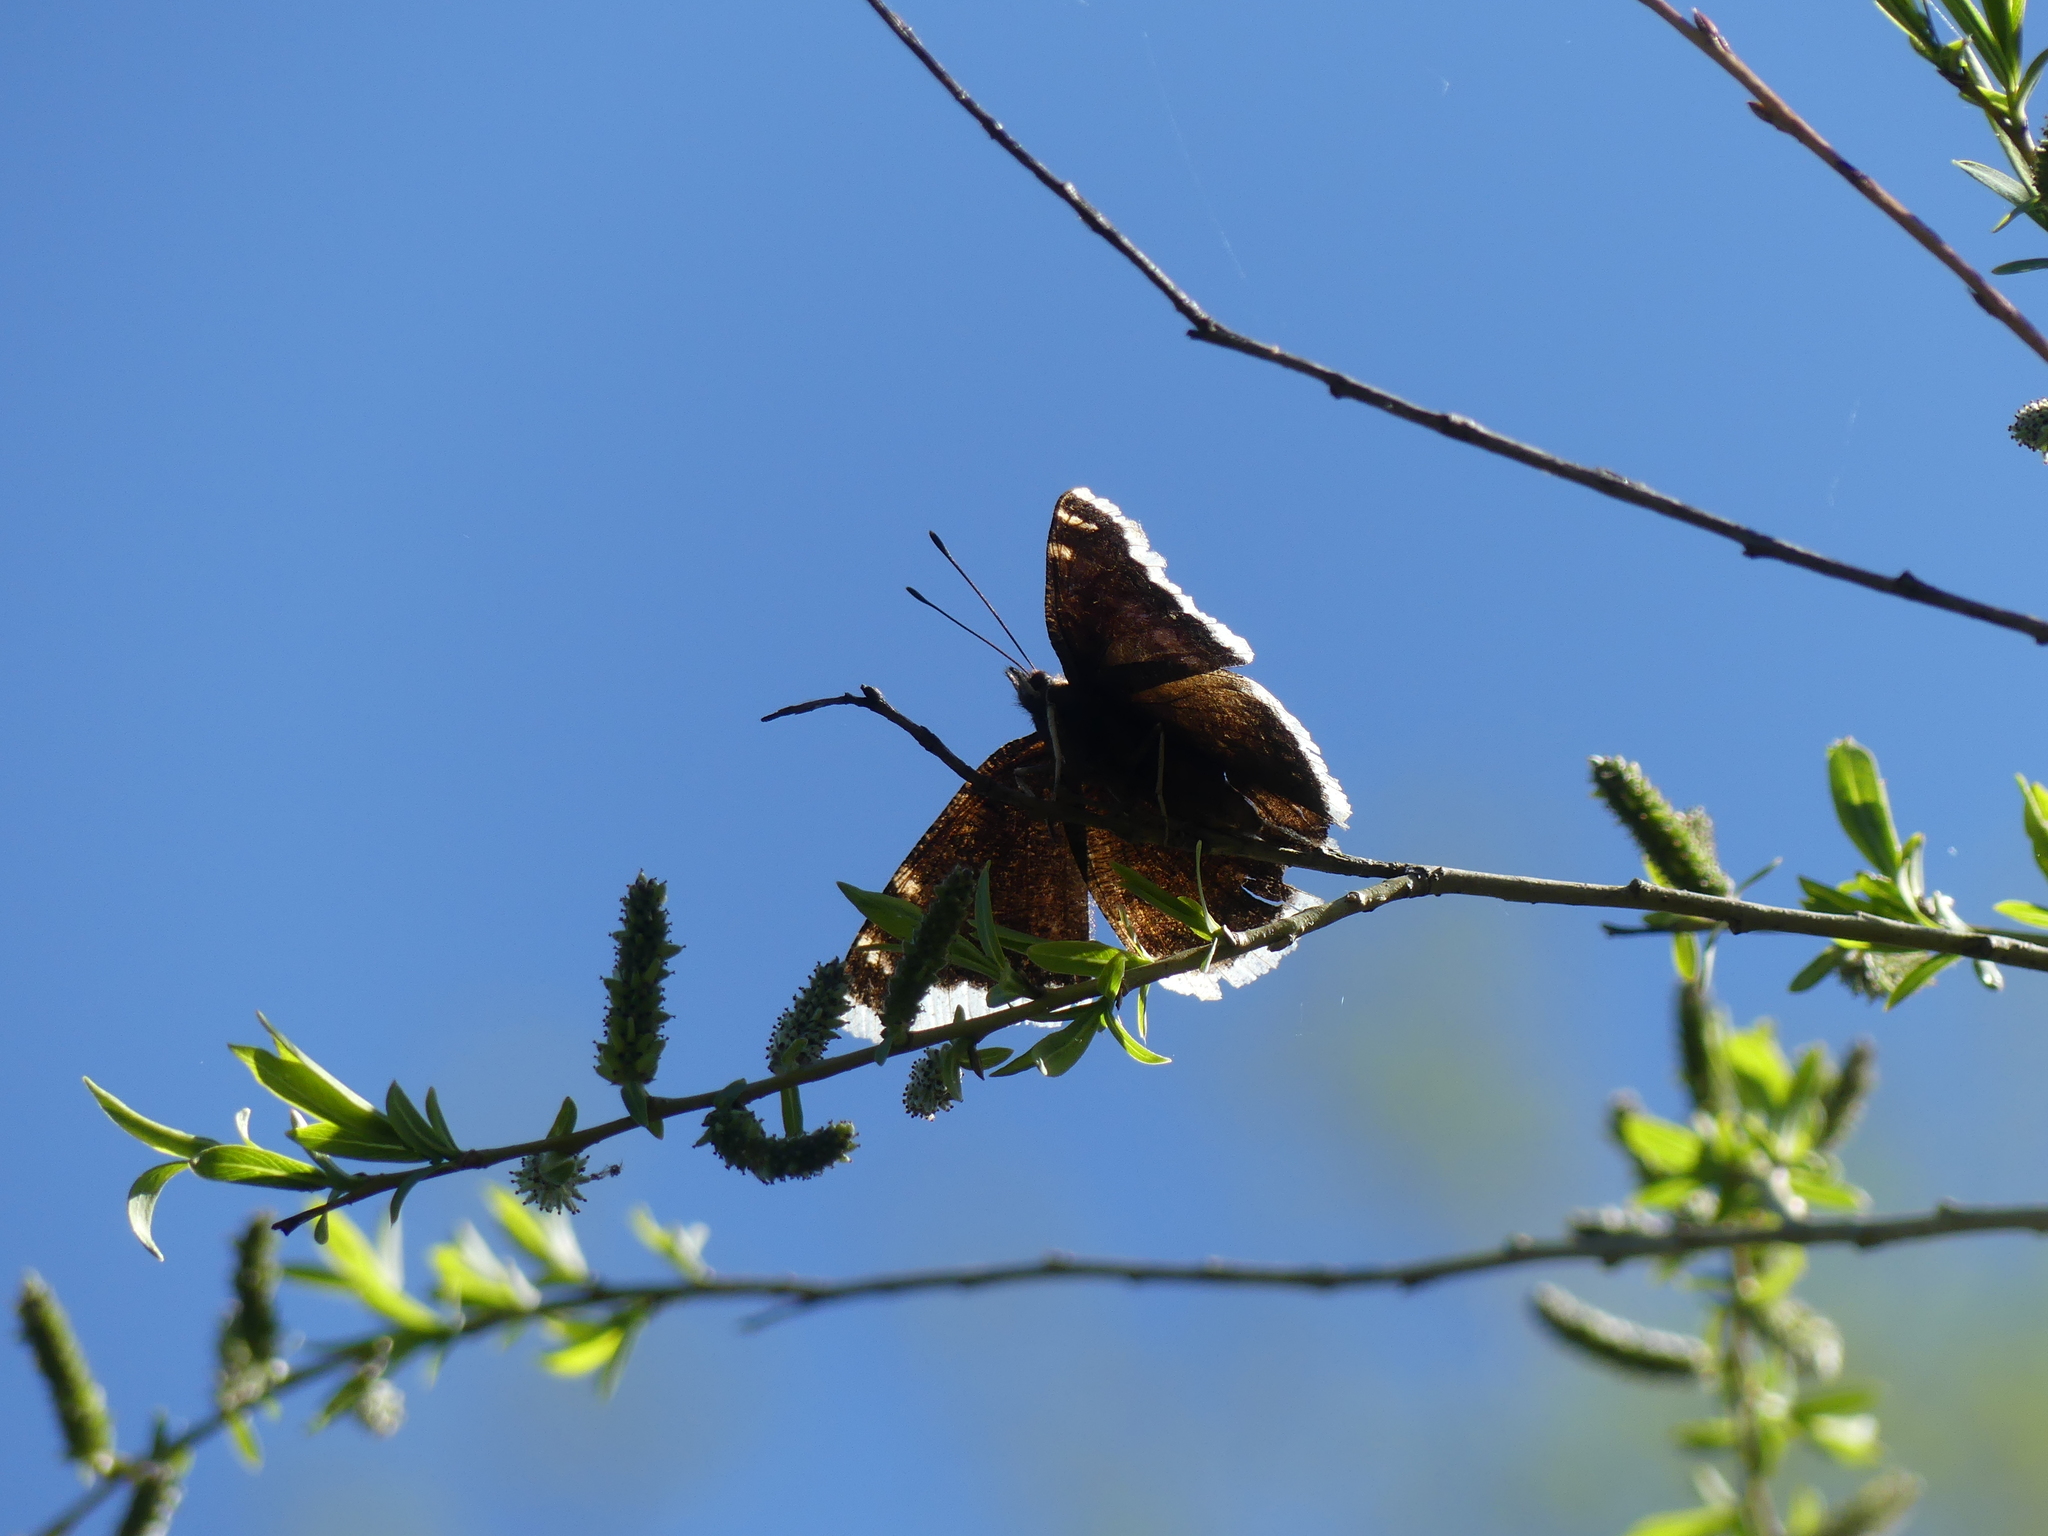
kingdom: Animalia
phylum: Arthropoda
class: Insecta
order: Lepidoptera
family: Nymphalidae
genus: Nymphalis
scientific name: Nymphalis antiopa
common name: Camberwell beauty
